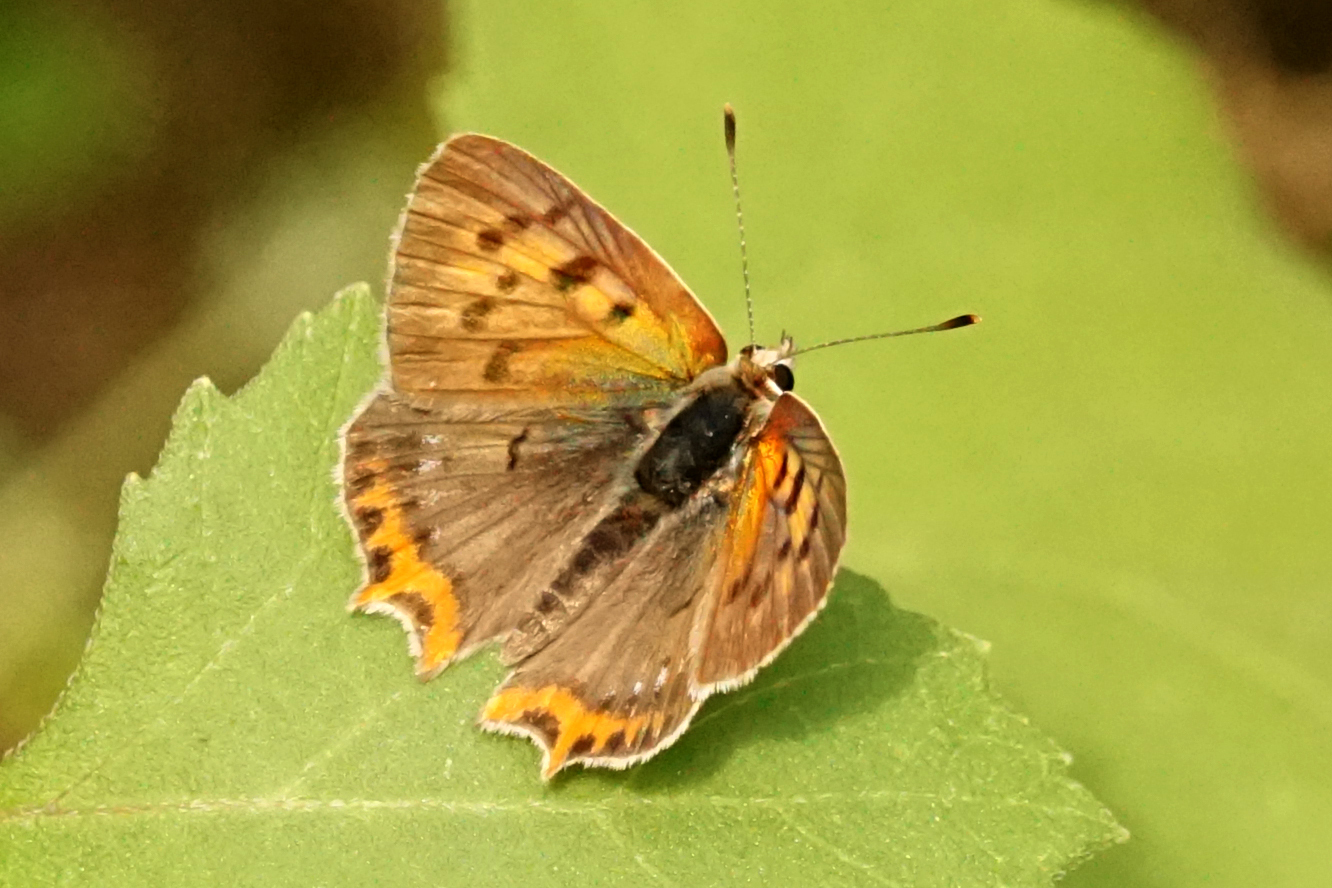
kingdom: Animalia
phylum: Arthropoda
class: Insecta
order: Lepidoptera
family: Lycaenidae
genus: Lycaena
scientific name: Lycaena phlaeas
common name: Small copper
